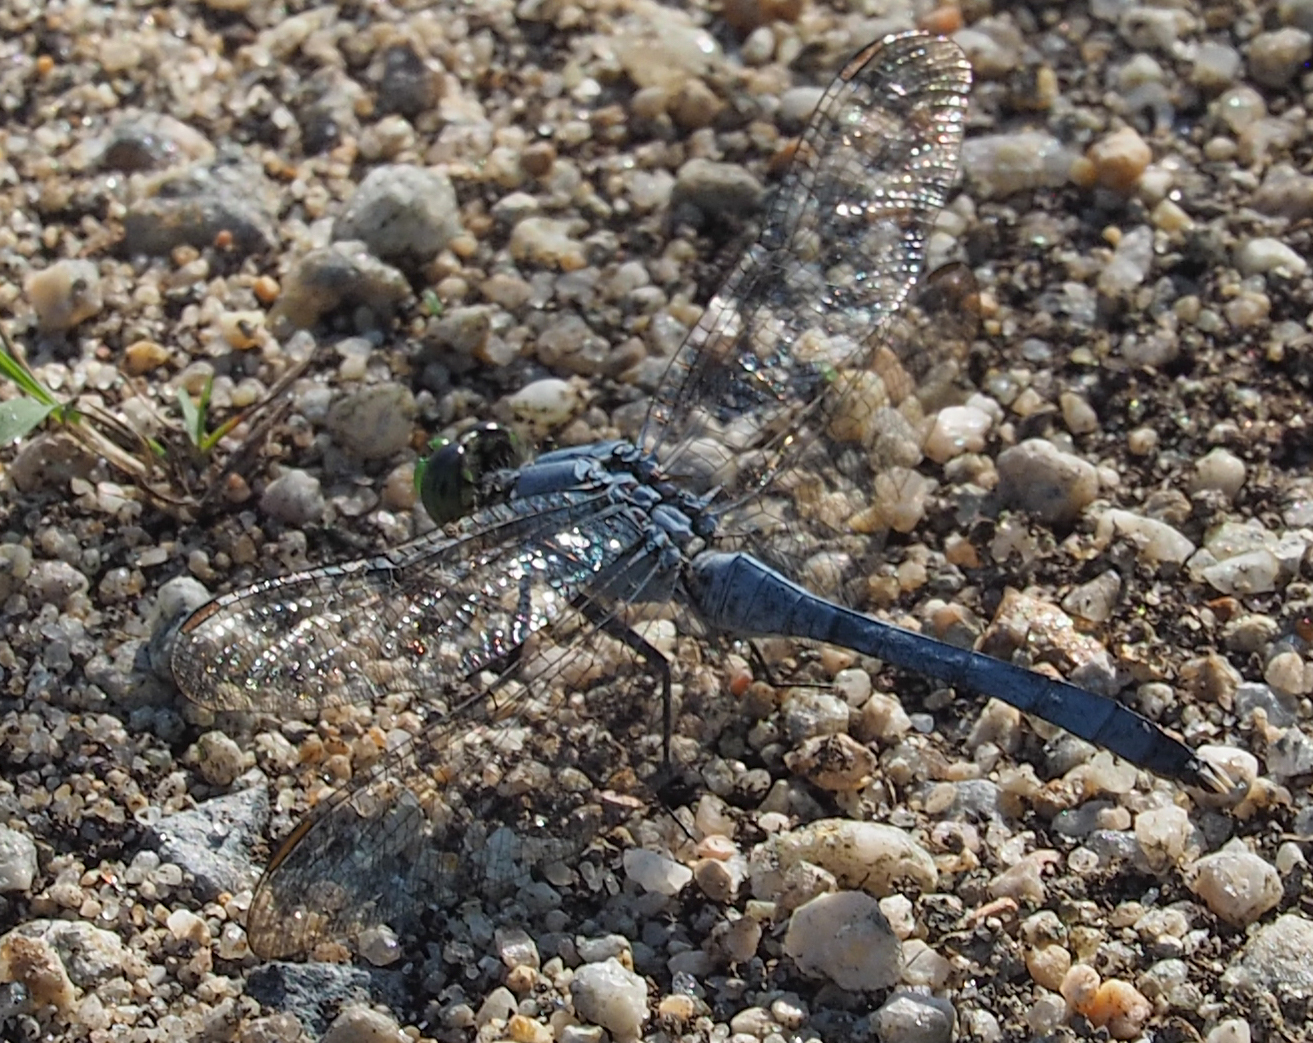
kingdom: Animalia
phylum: Arthropoda
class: Insecta
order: Odonata
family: Libellulidae
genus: Erythemis
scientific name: Erythemis simplicicollis
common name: Eastern pondhawk
